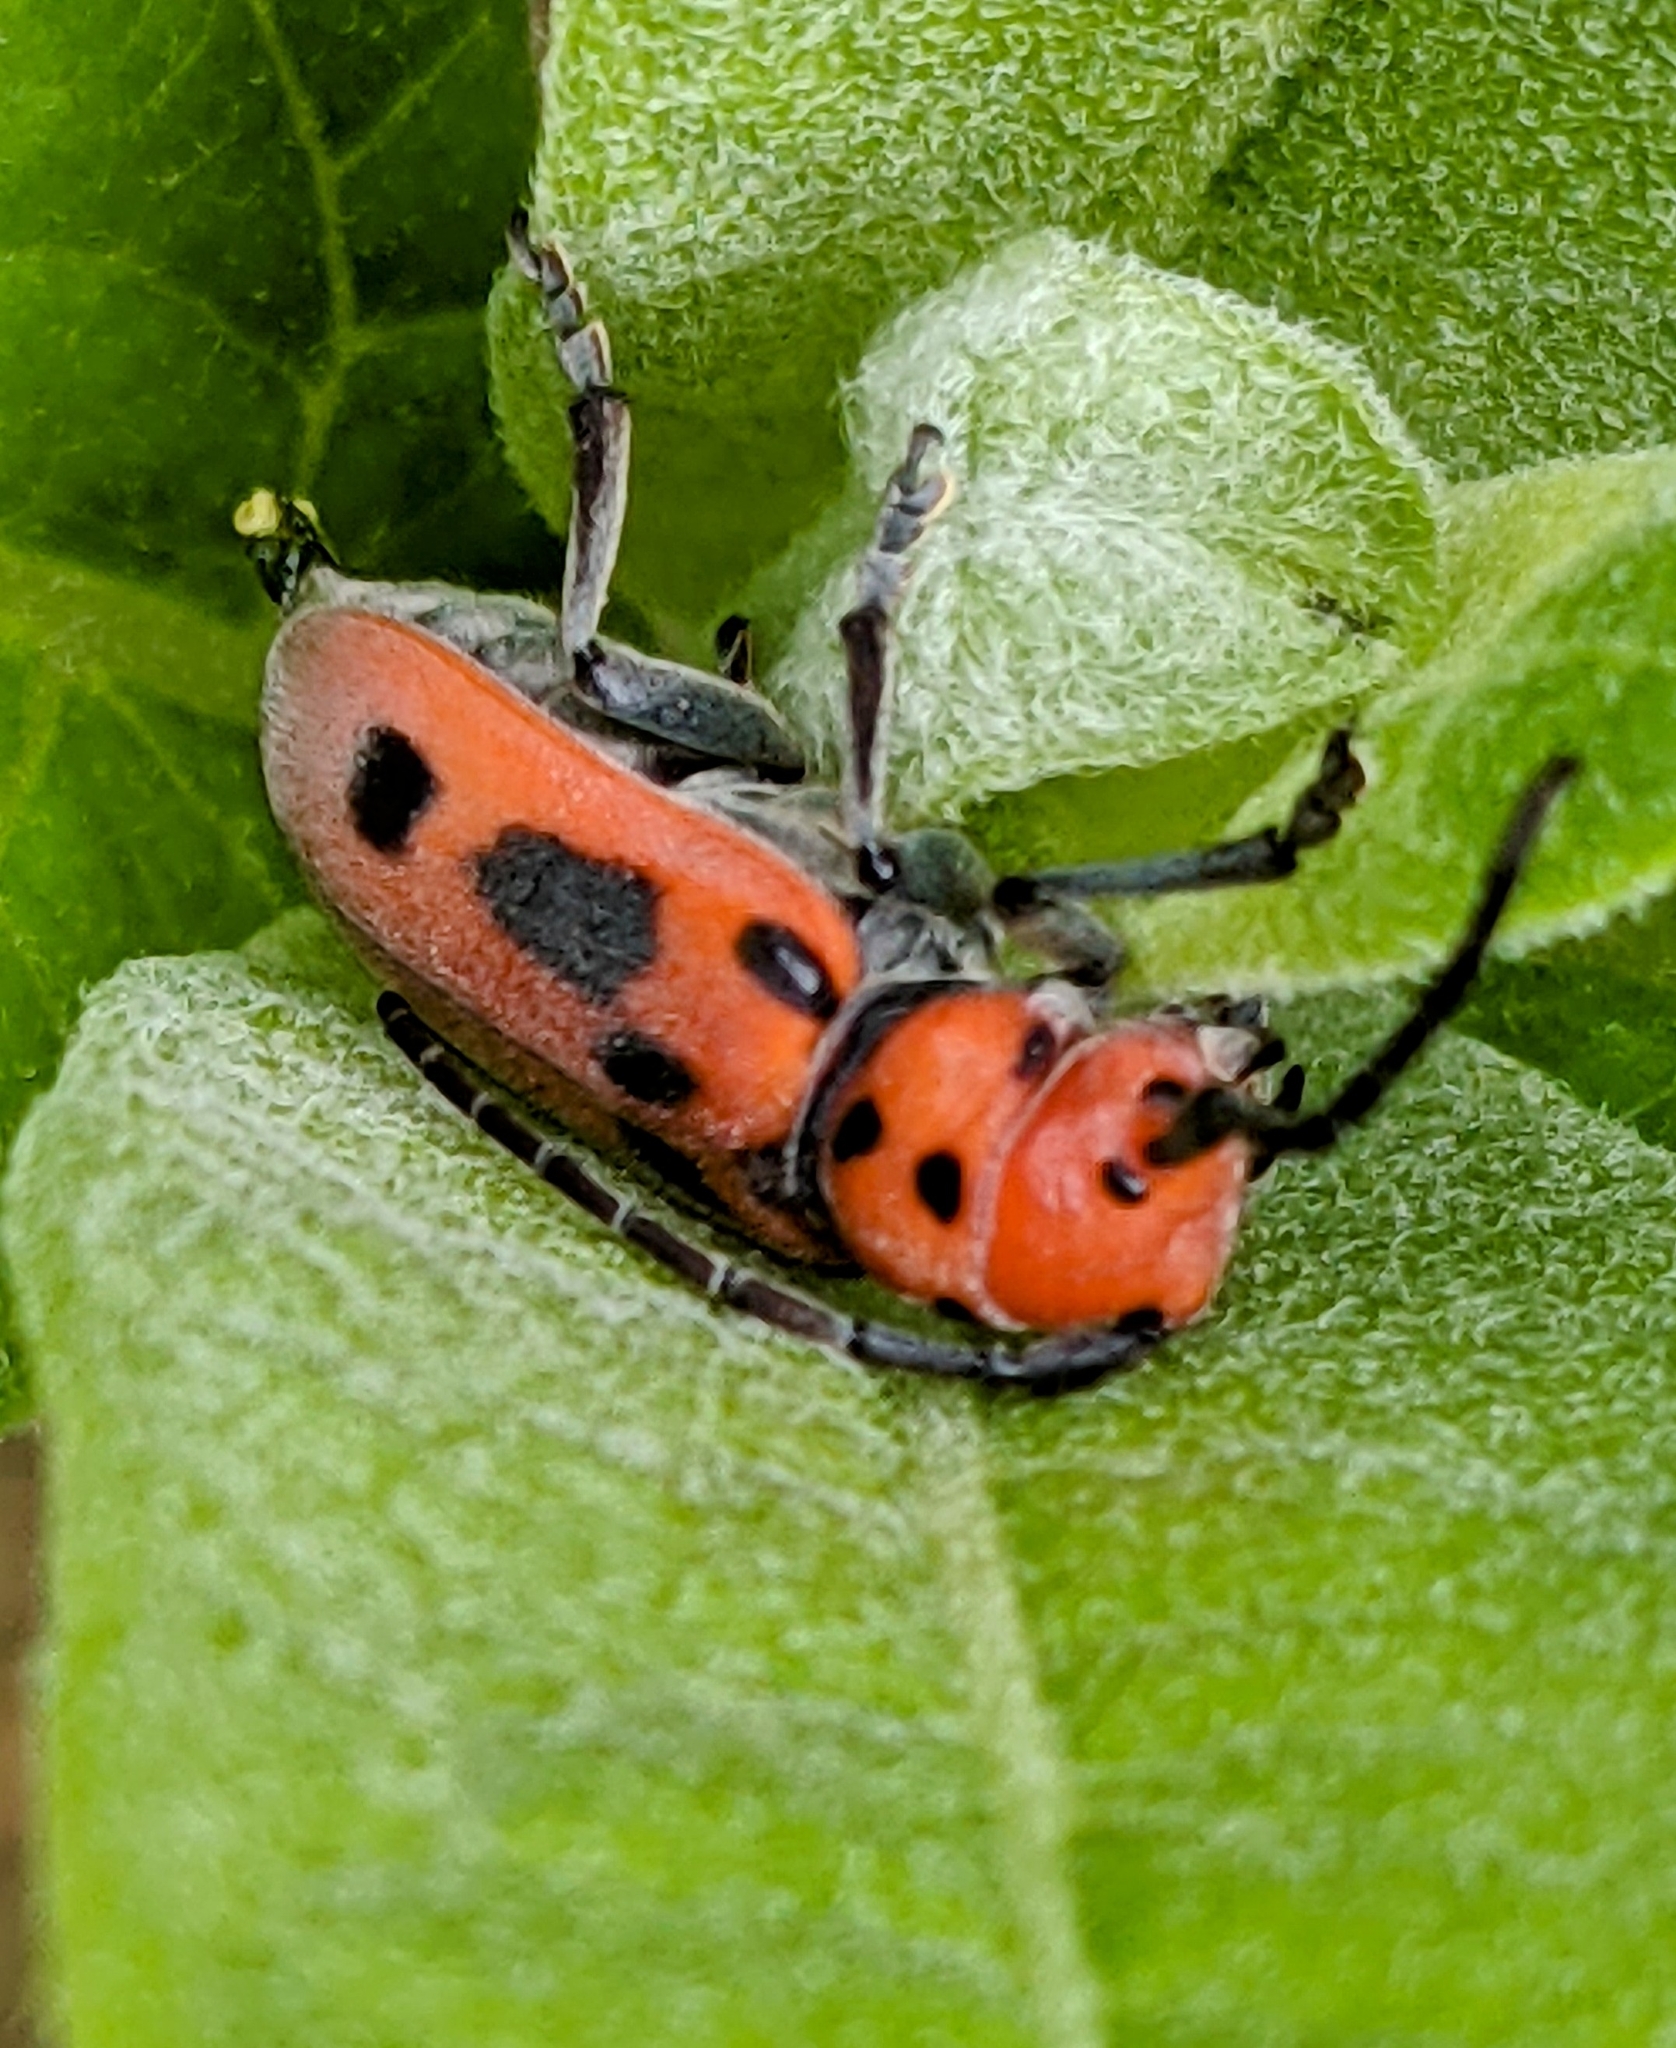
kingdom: Animalia
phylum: Arthropoda
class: Insecta
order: Coleoptera
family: Cerambycidae
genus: Tetraopes
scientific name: Tetraopes tetrophthalmus
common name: Red milkweed beetle
